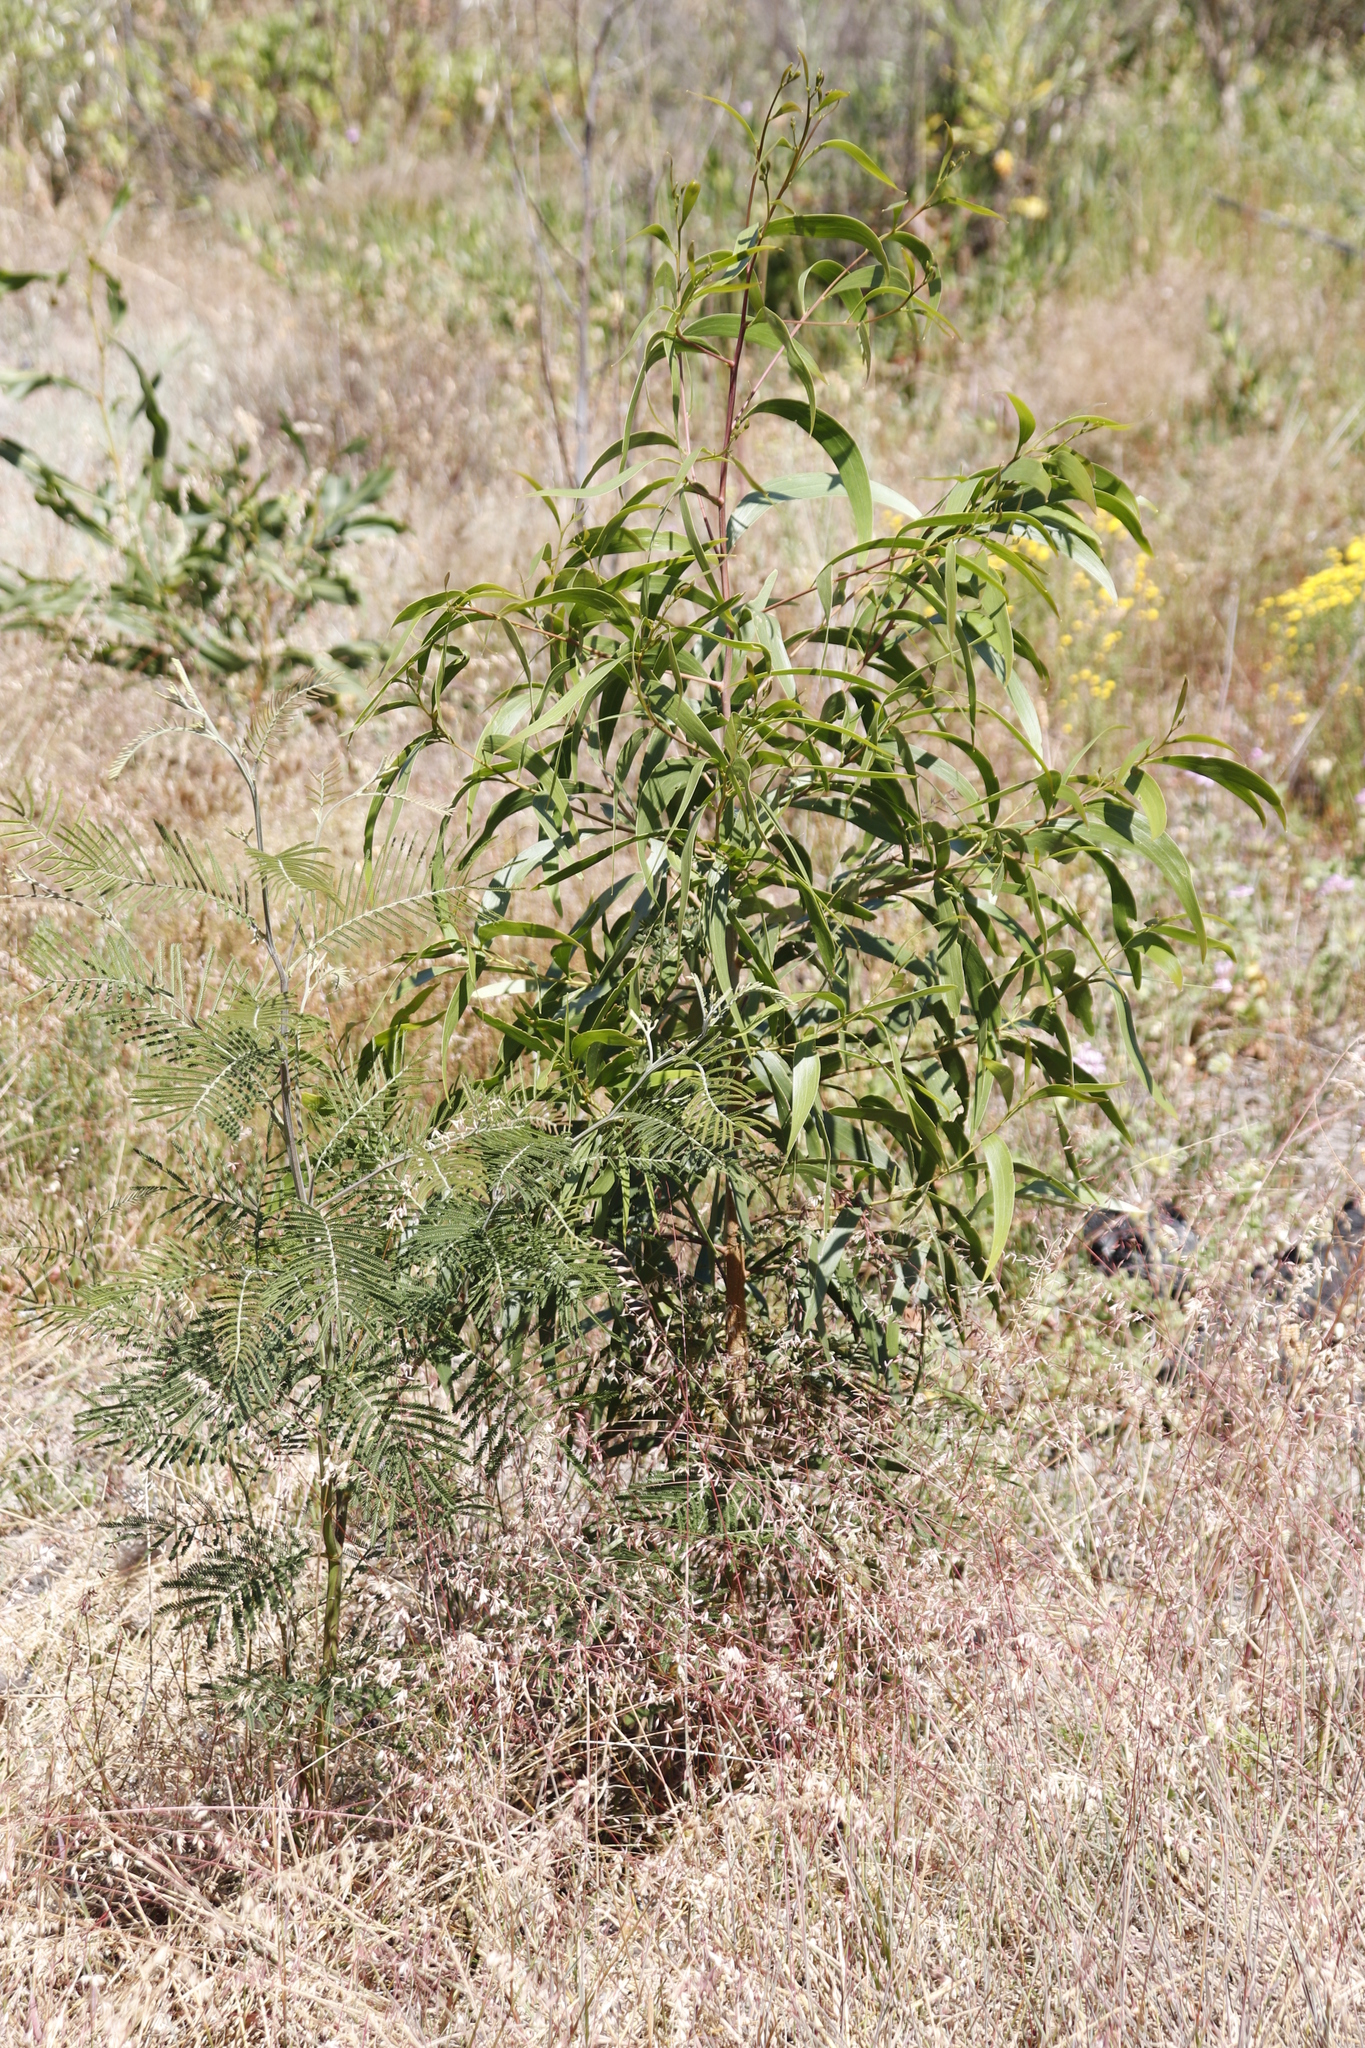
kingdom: Plantae
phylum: Tracheophyta
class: Magnoliopsida
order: Fabales
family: Fabaceae
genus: Acacia
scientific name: Acacia mearnsii
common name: Black wattle
